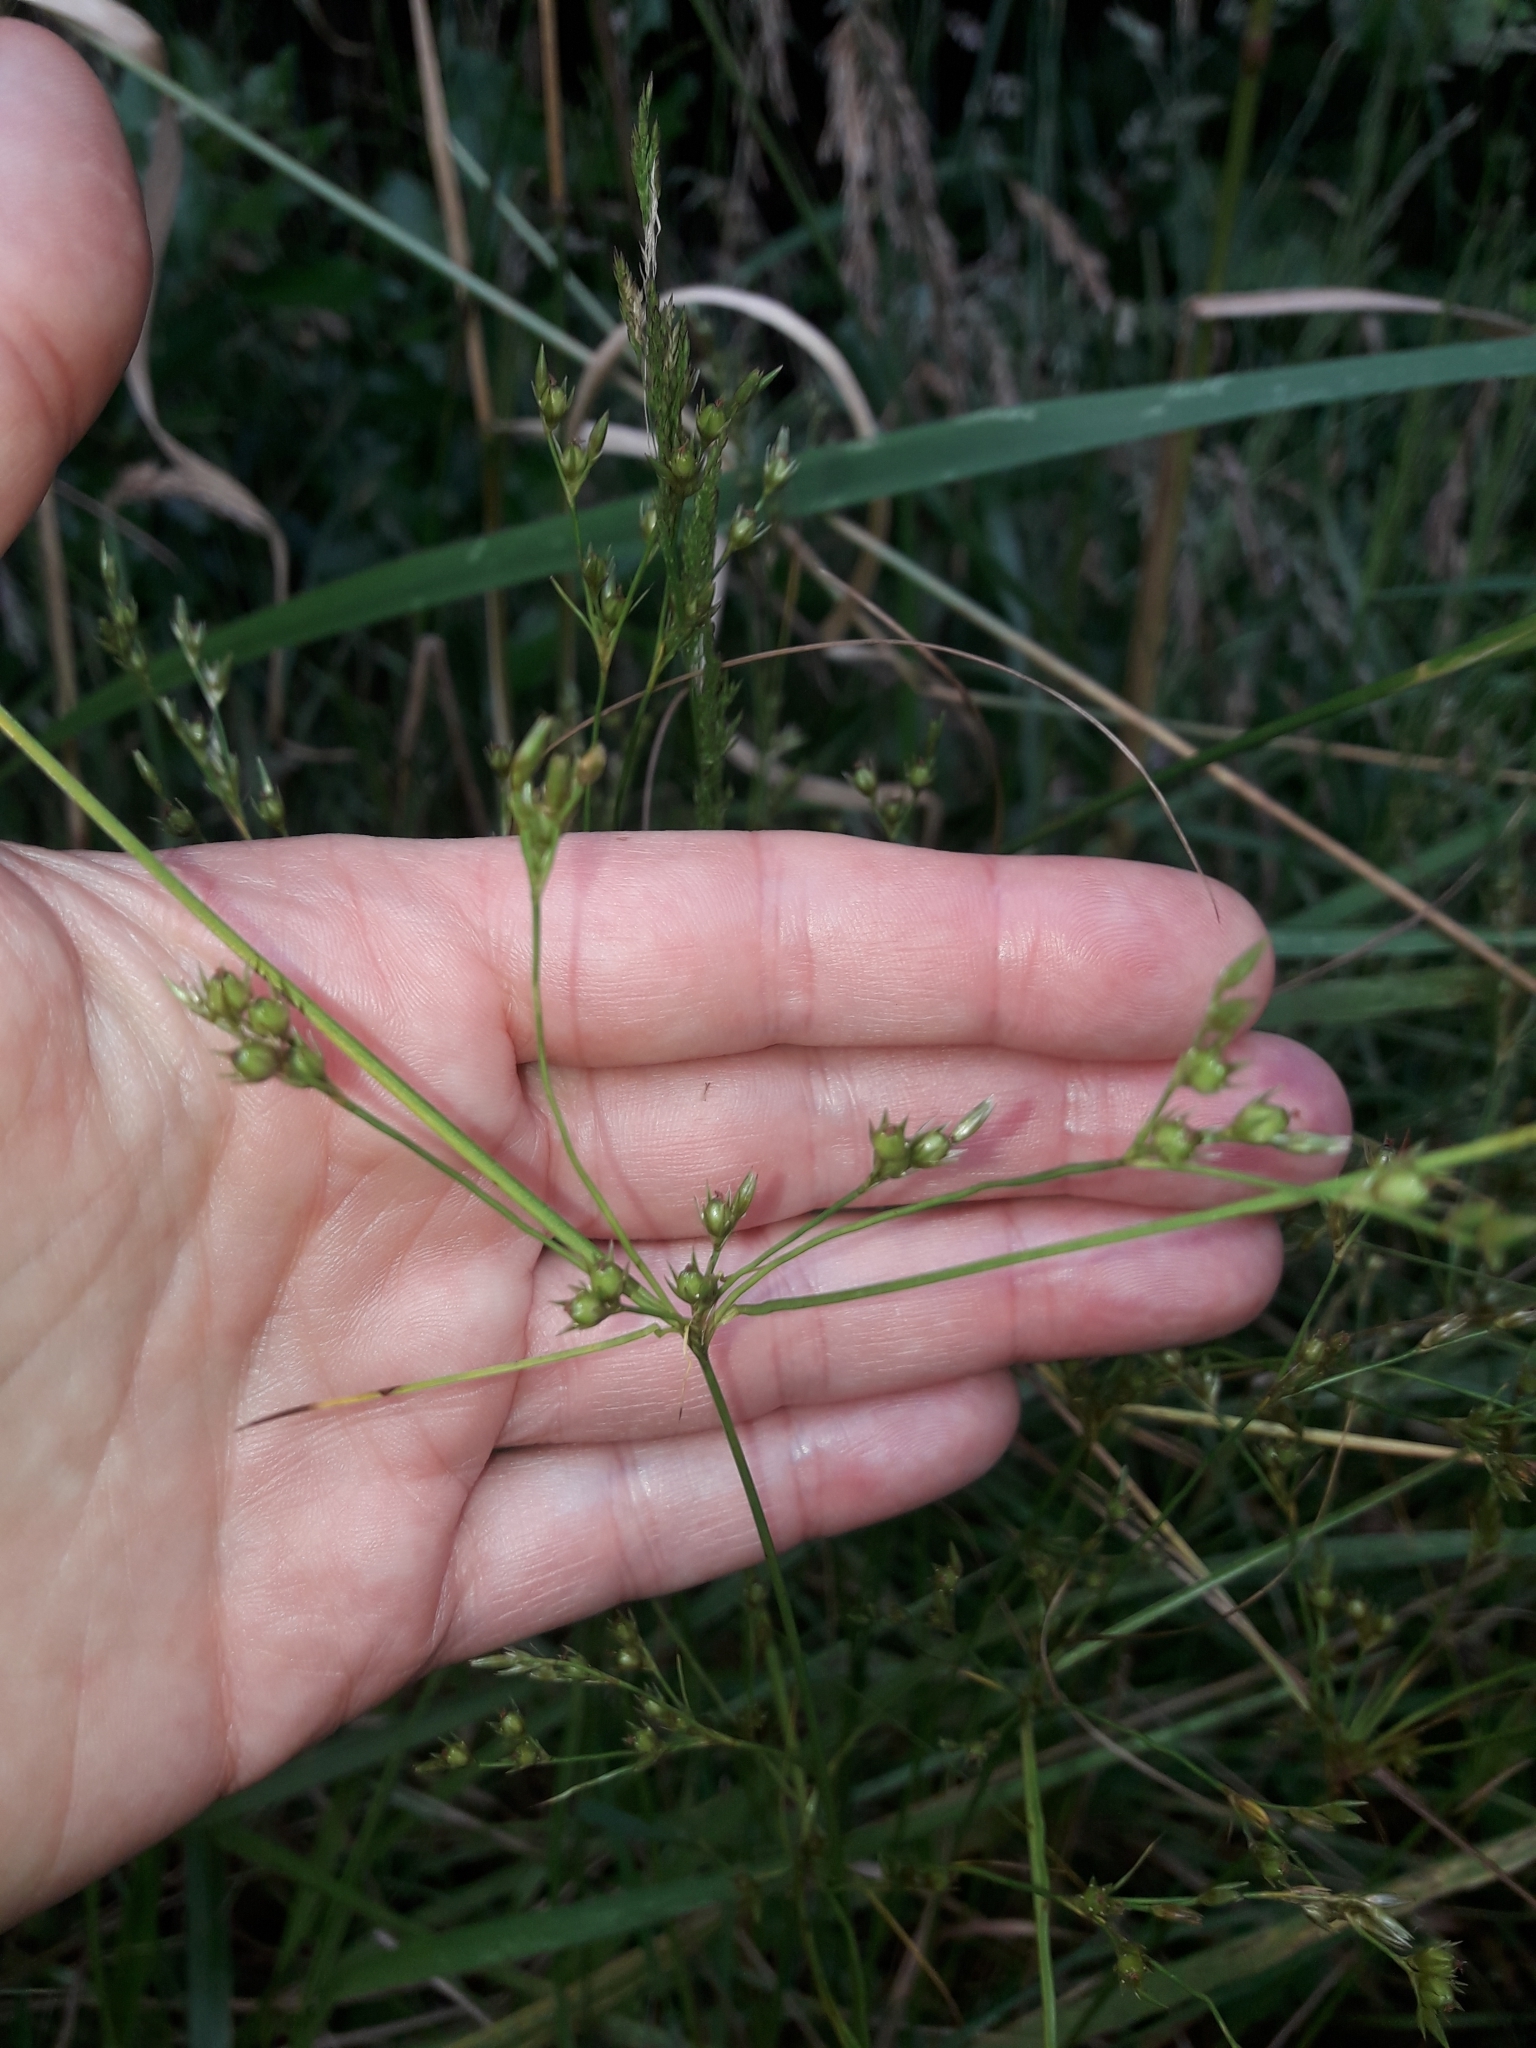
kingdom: Plantae
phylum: Tracheophyta
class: Liliopsida
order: Poales
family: Juncaceae
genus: Juncus
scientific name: Juncus anthelatus
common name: Giant path rush
